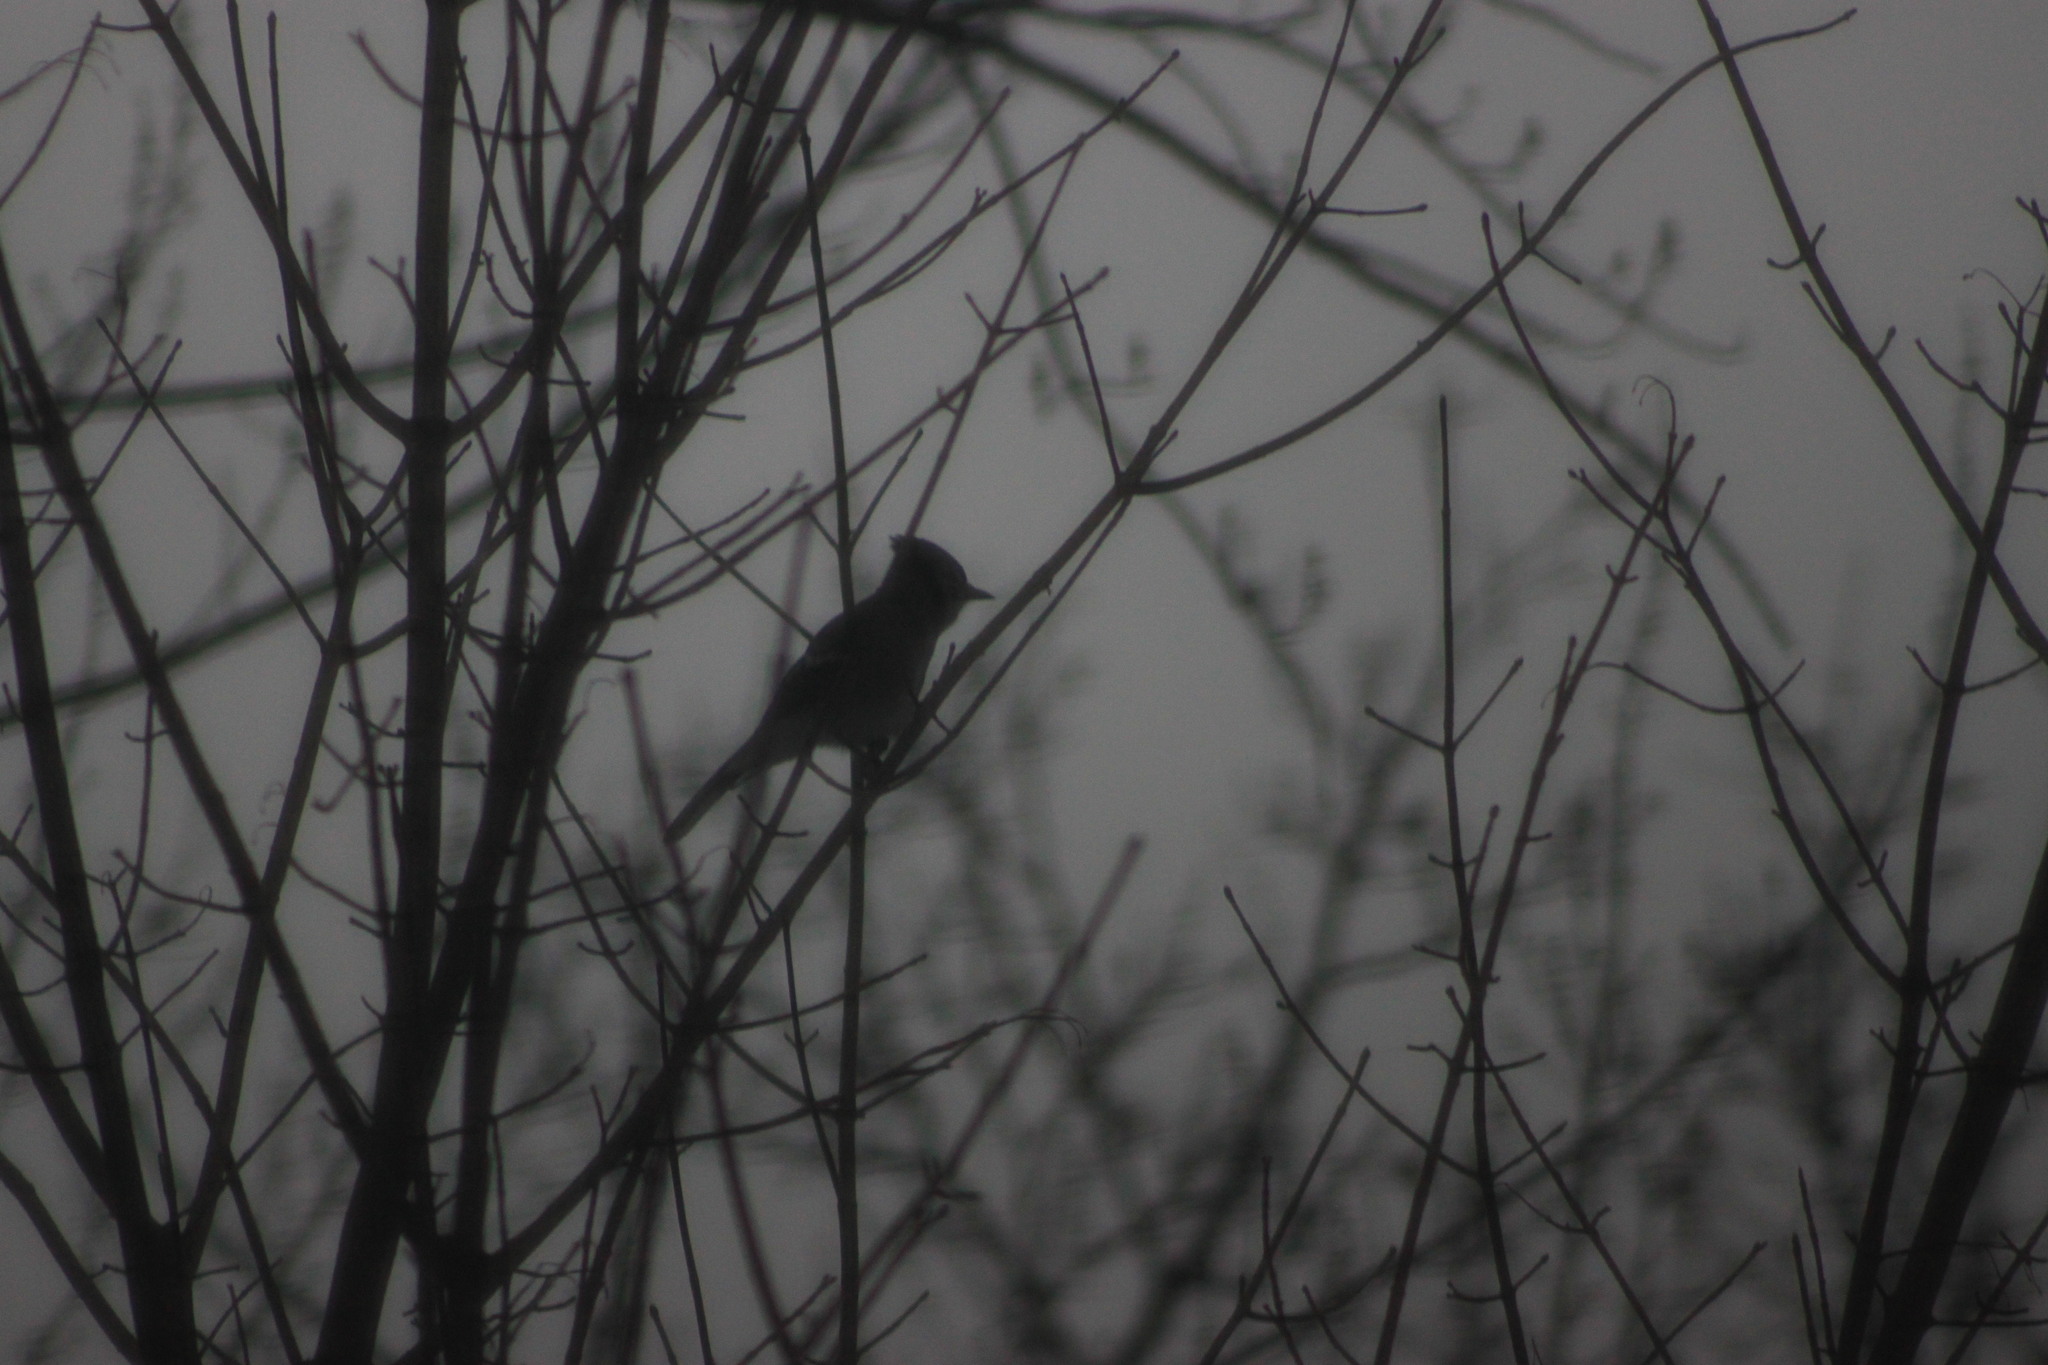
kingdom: Animalia
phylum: Chordata
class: Aves
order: Passeriformes
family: Corvidae
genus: Cyanocitta
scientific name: Cyanocitta cristata
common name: Blue jay
